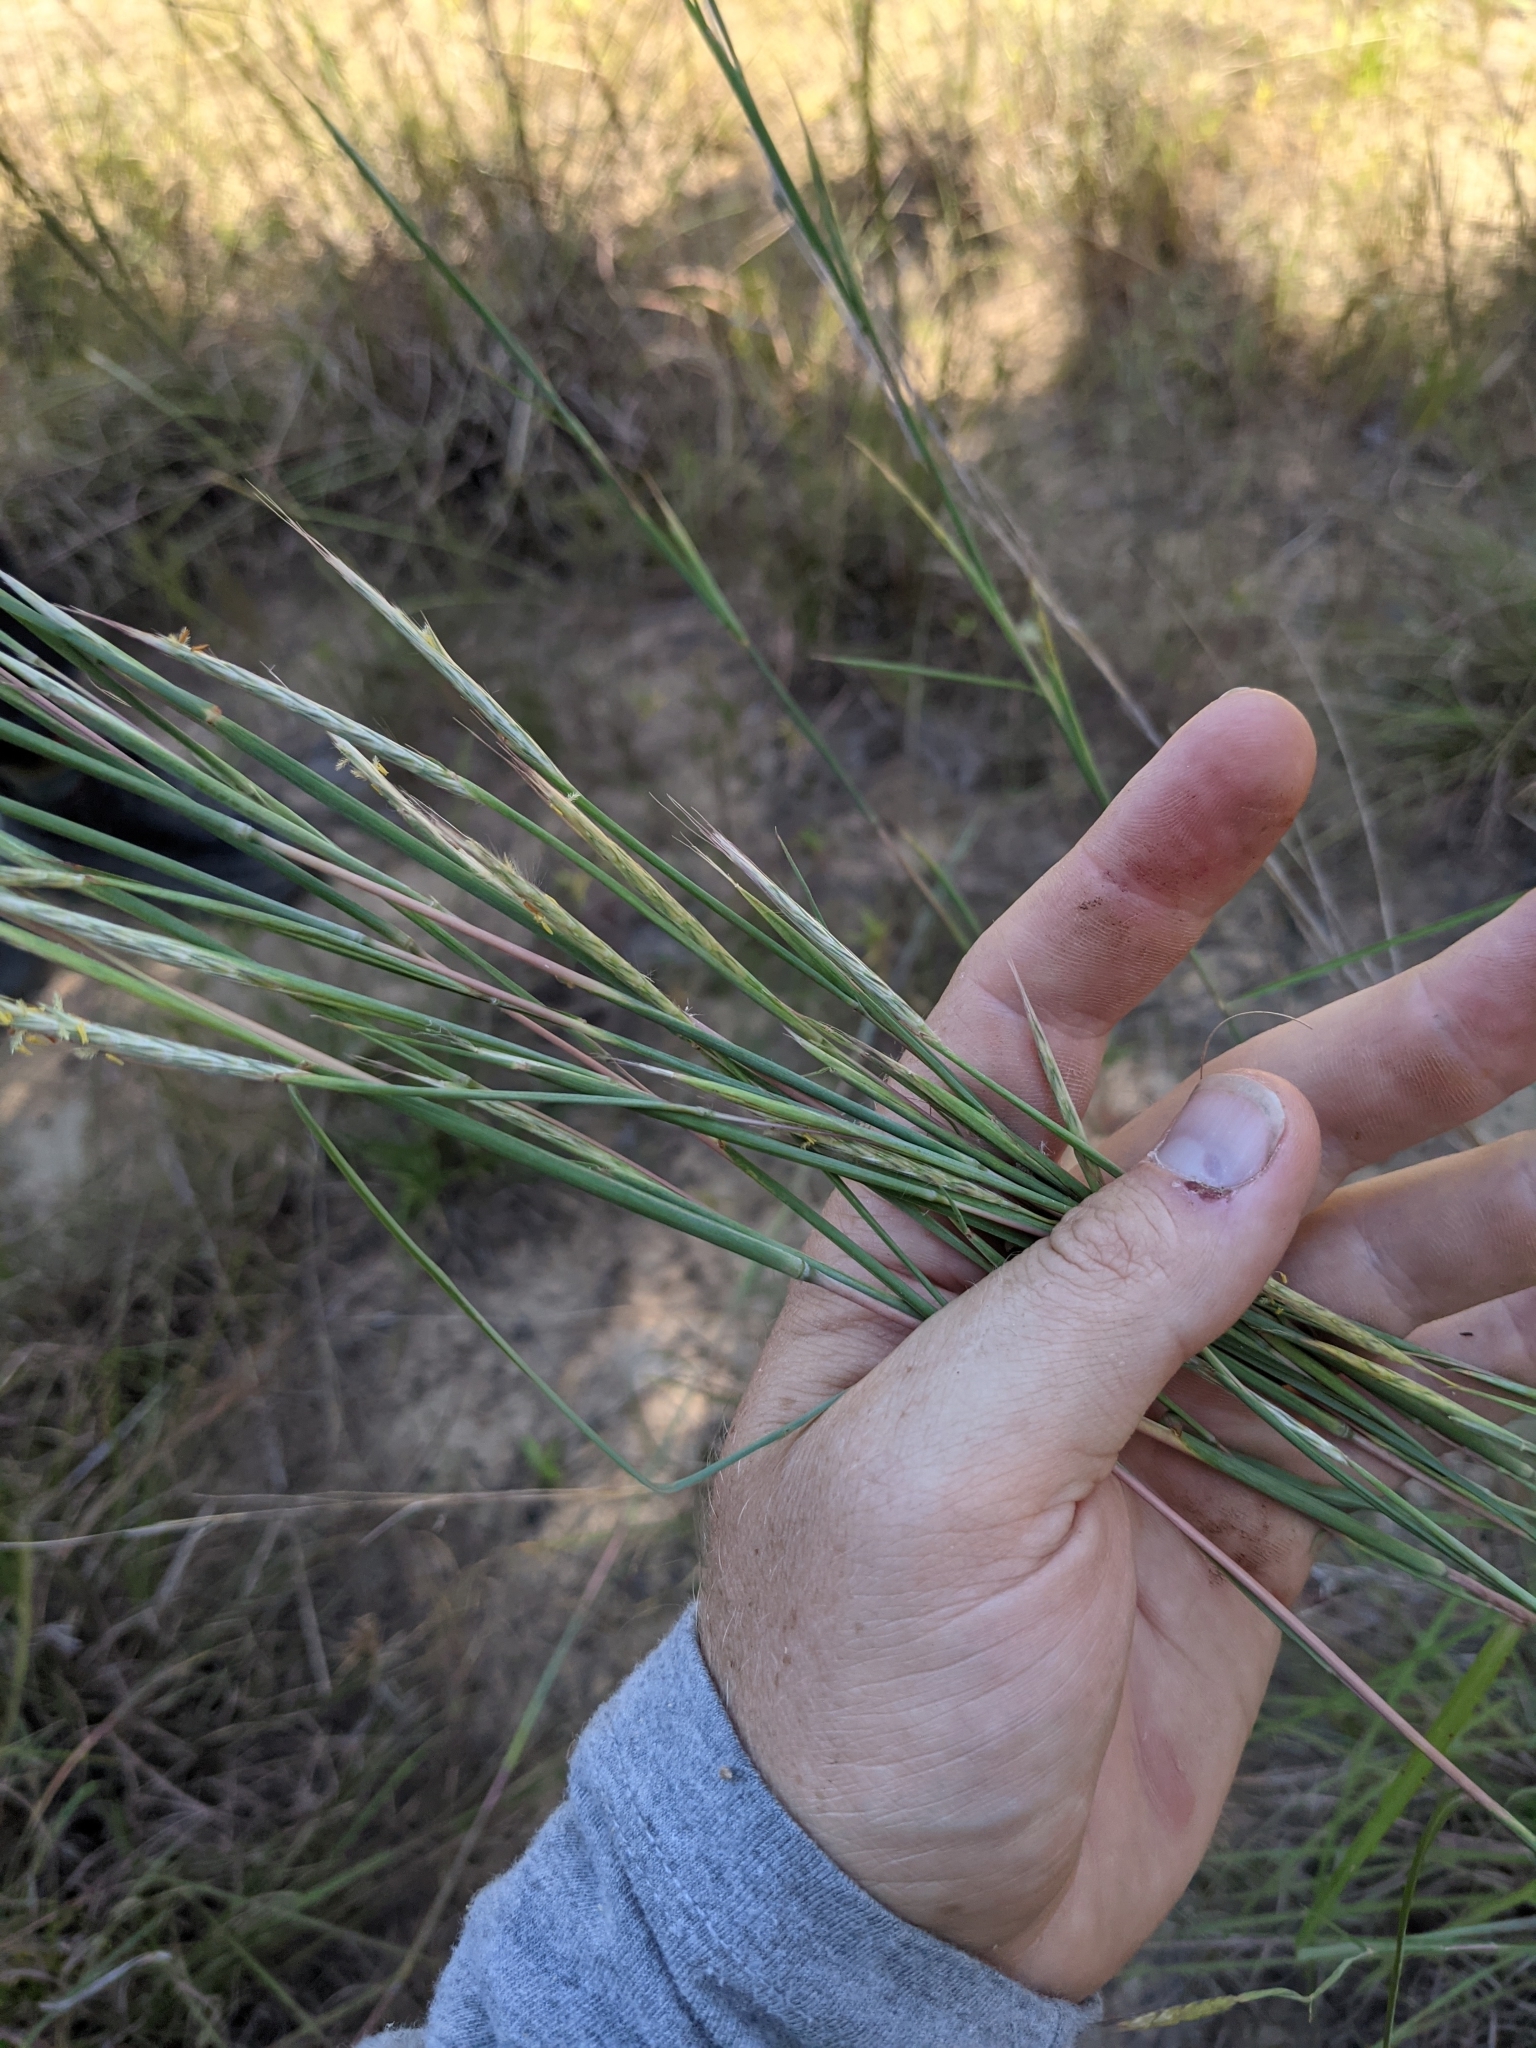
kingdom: Plantae
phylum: Tracheophyta
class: Liliopsida
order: Poales
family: Poaceae
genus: Andropogon
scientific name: Andropogon ternarius
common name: Split bluestem
